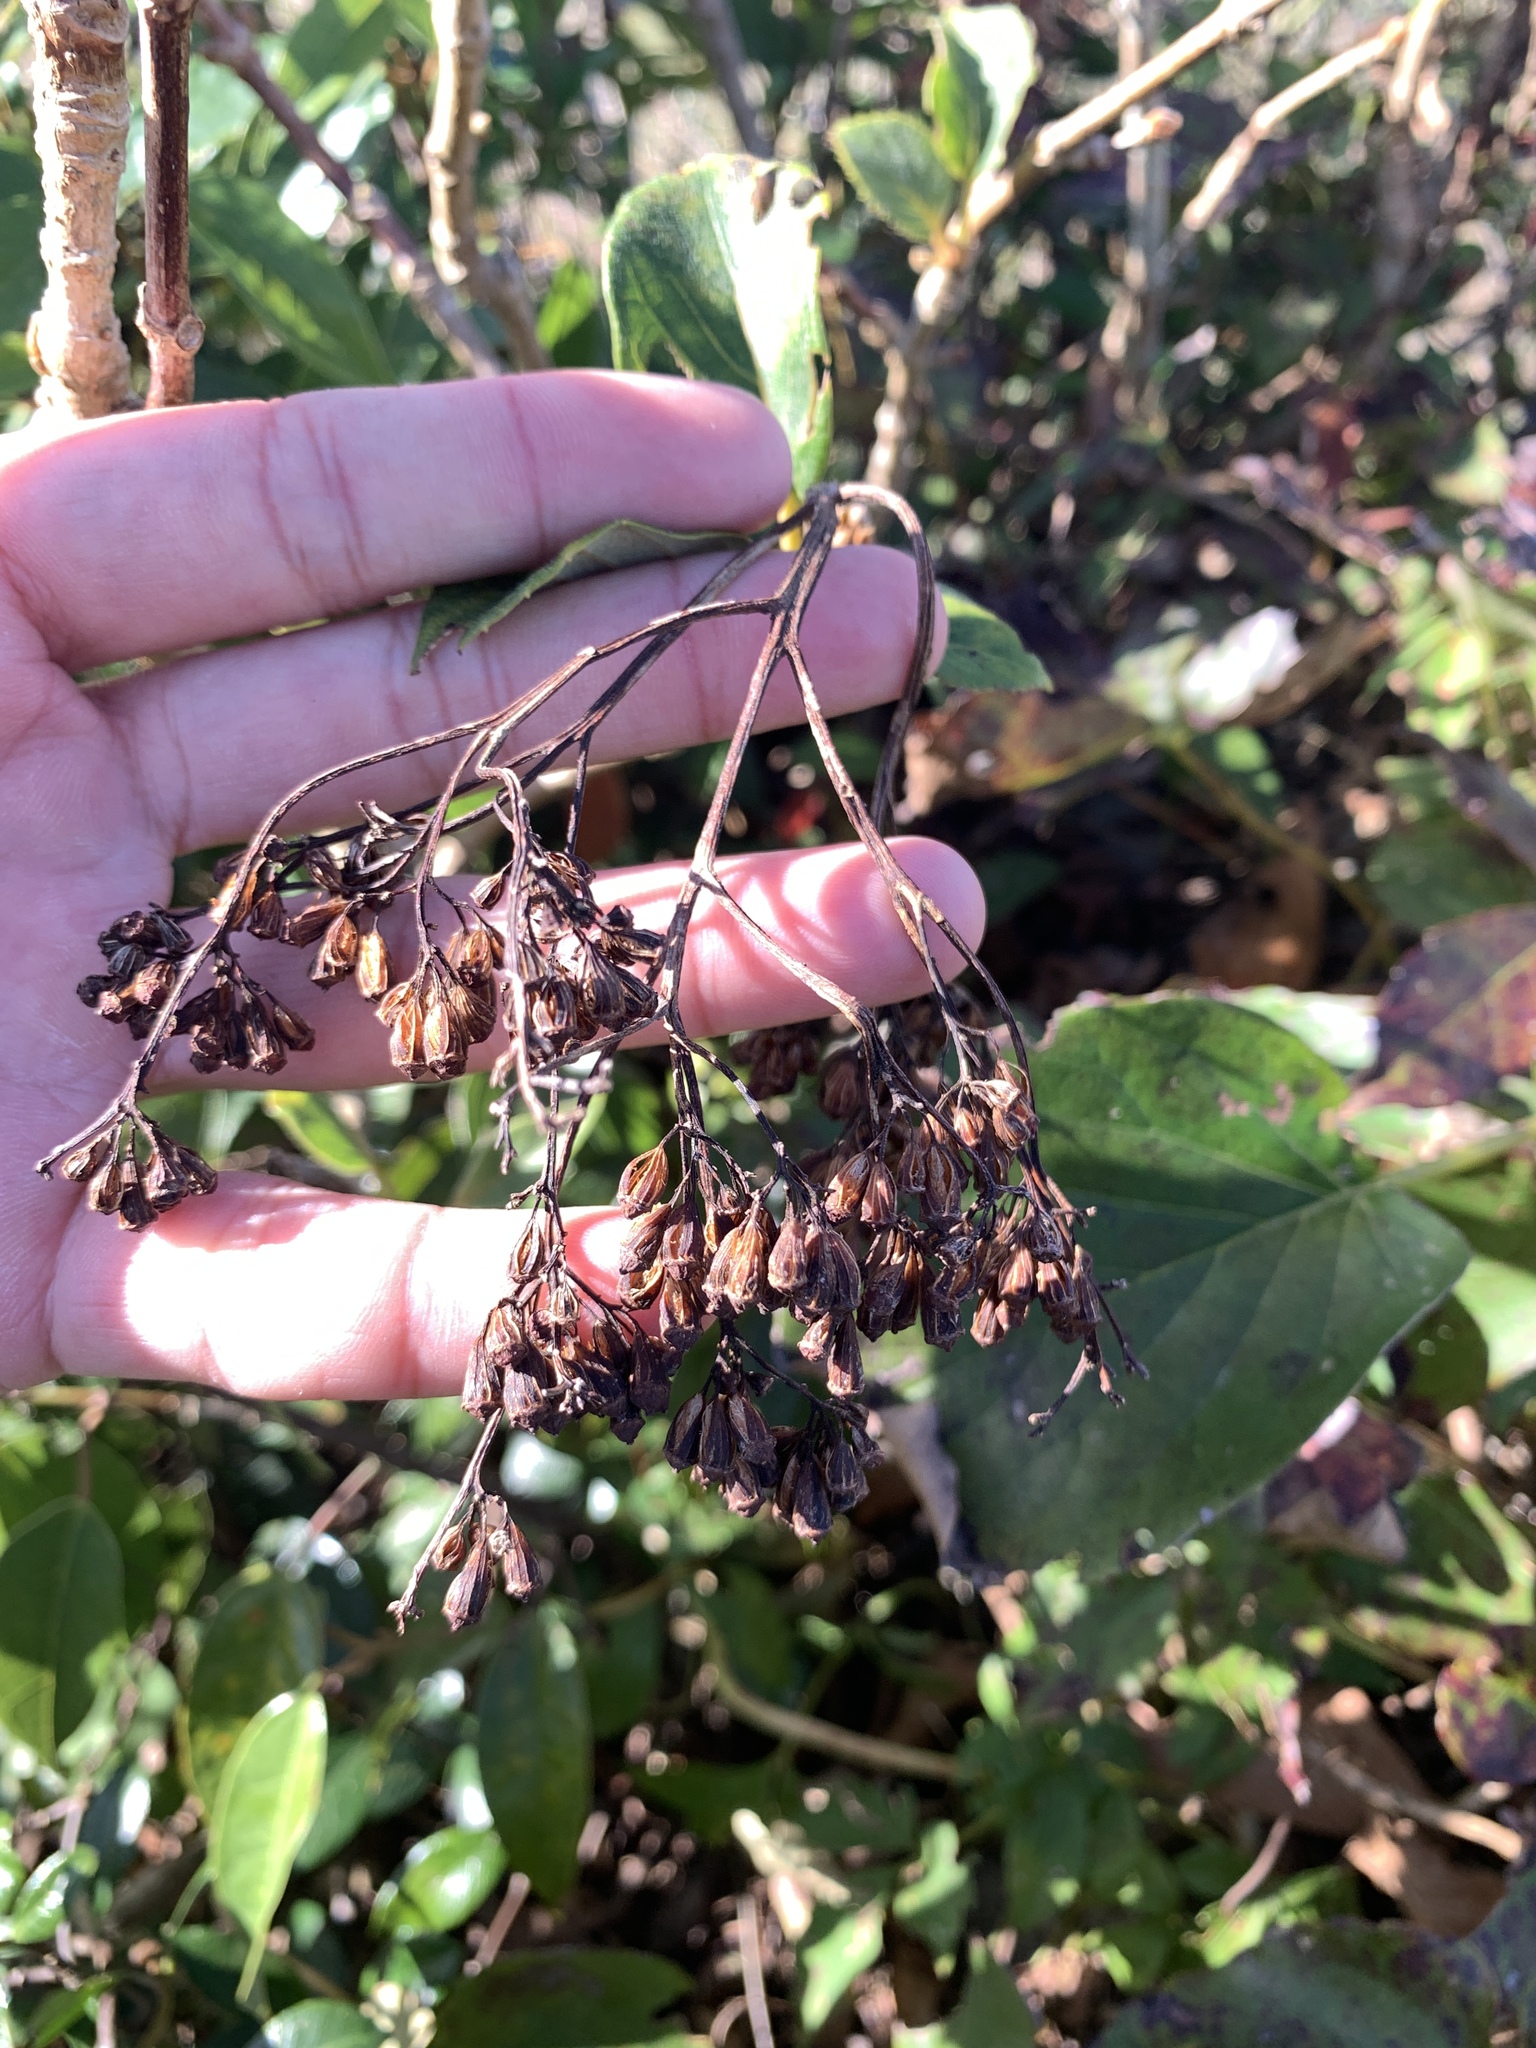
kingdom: Plantae
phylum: Tracheophyta
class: Magnoliopsida
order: Cornales
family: Hydrangeaceae
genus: Hydrangea
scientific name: Hydrangea fauriei
